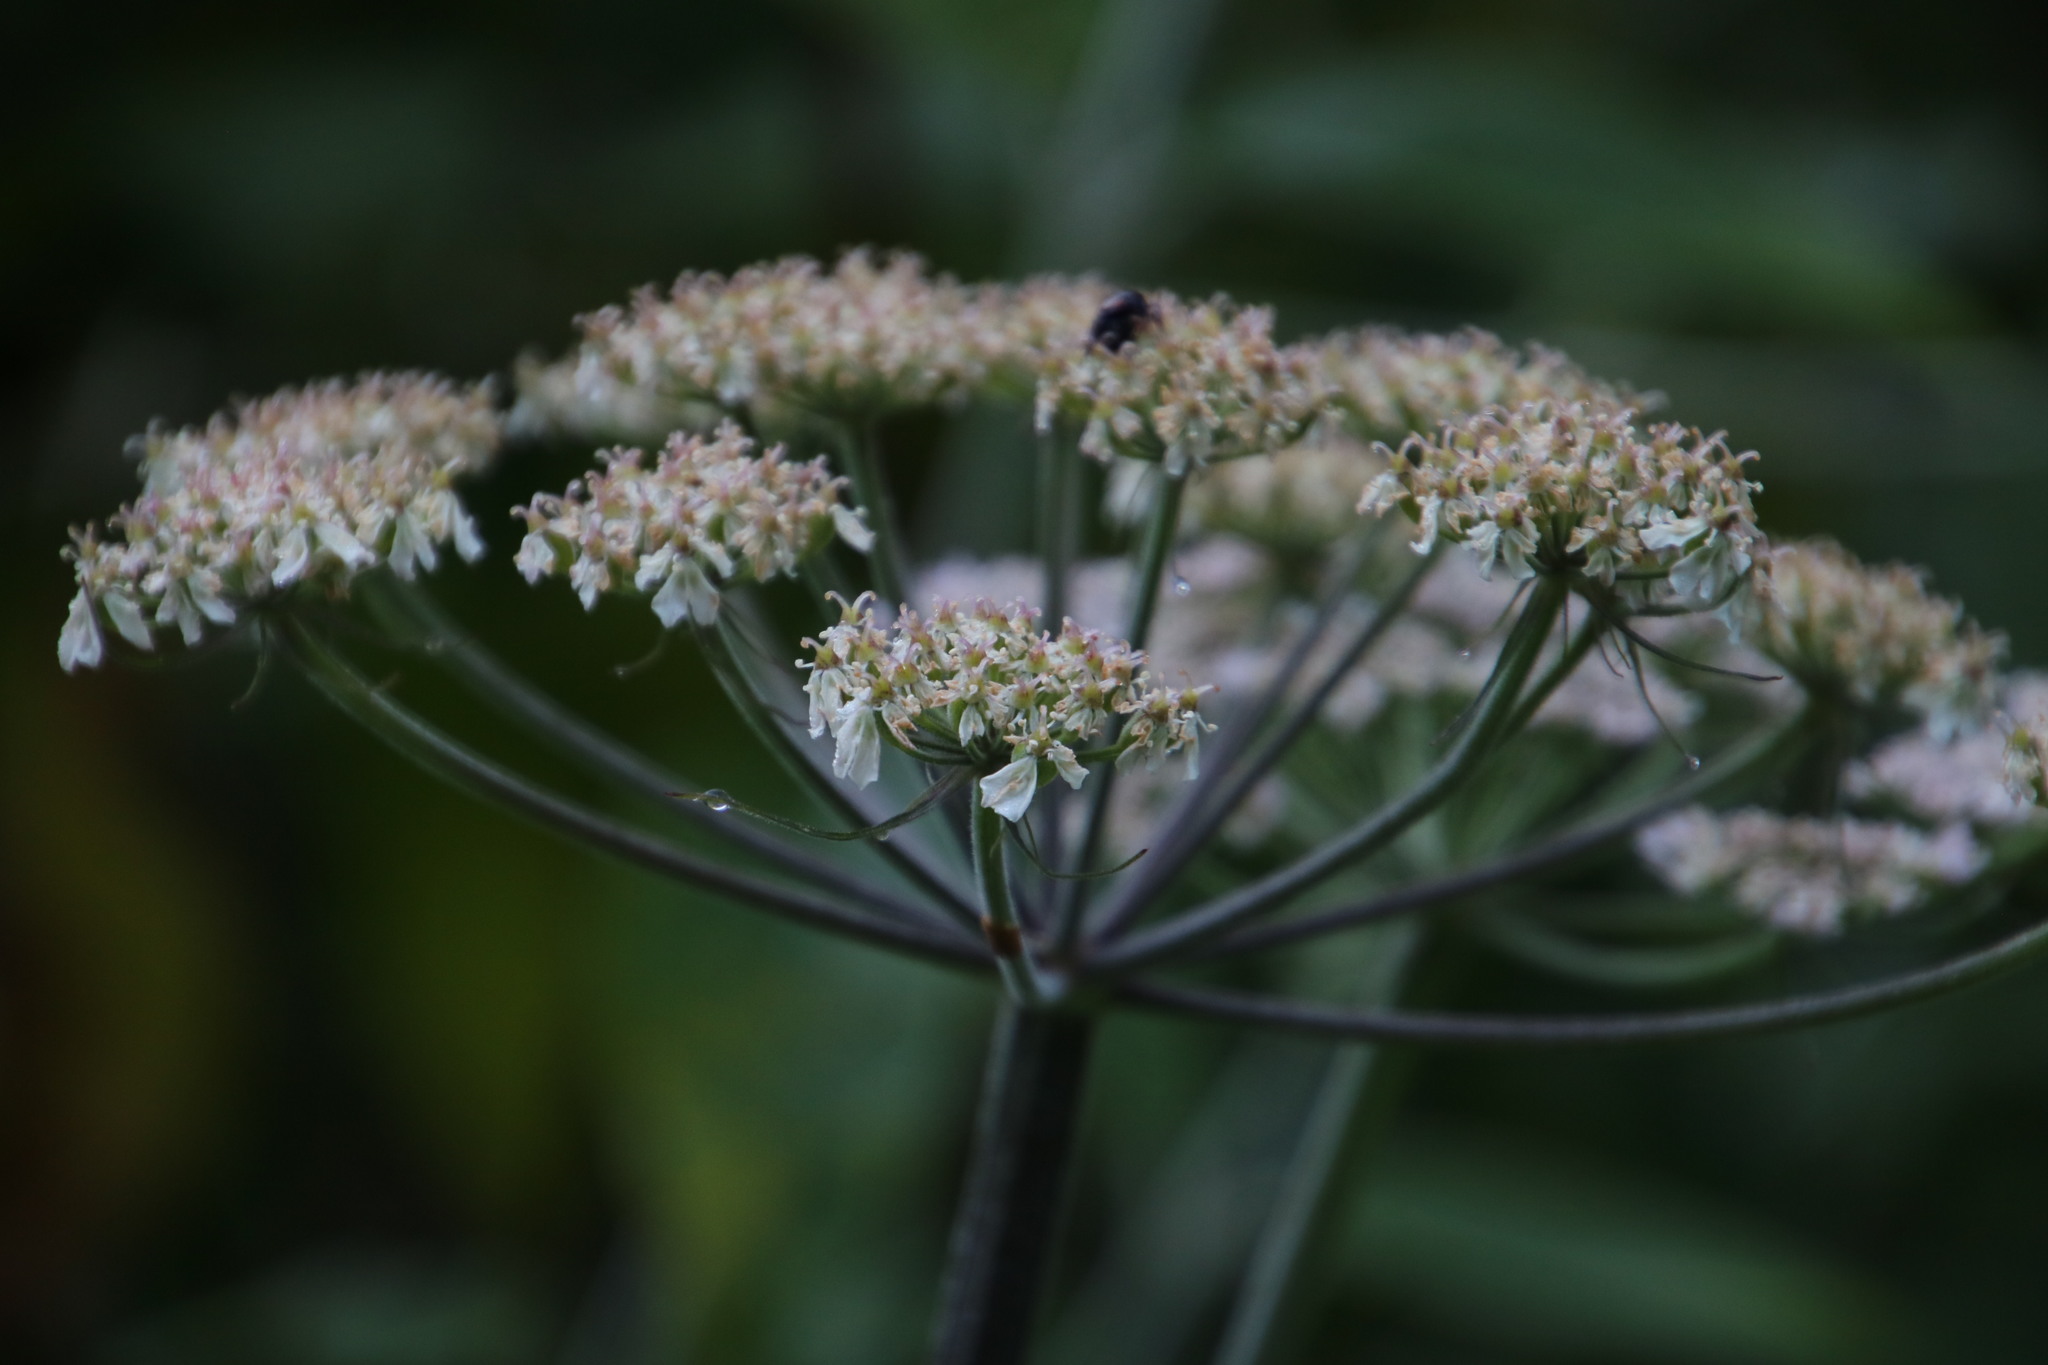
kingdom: Plantae
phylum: Tracheophyta
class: Magnoliopsida
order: Apiales
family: Apiaceae
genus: Heracleum
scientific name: Heracleum sphondylium
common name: Hogweed
